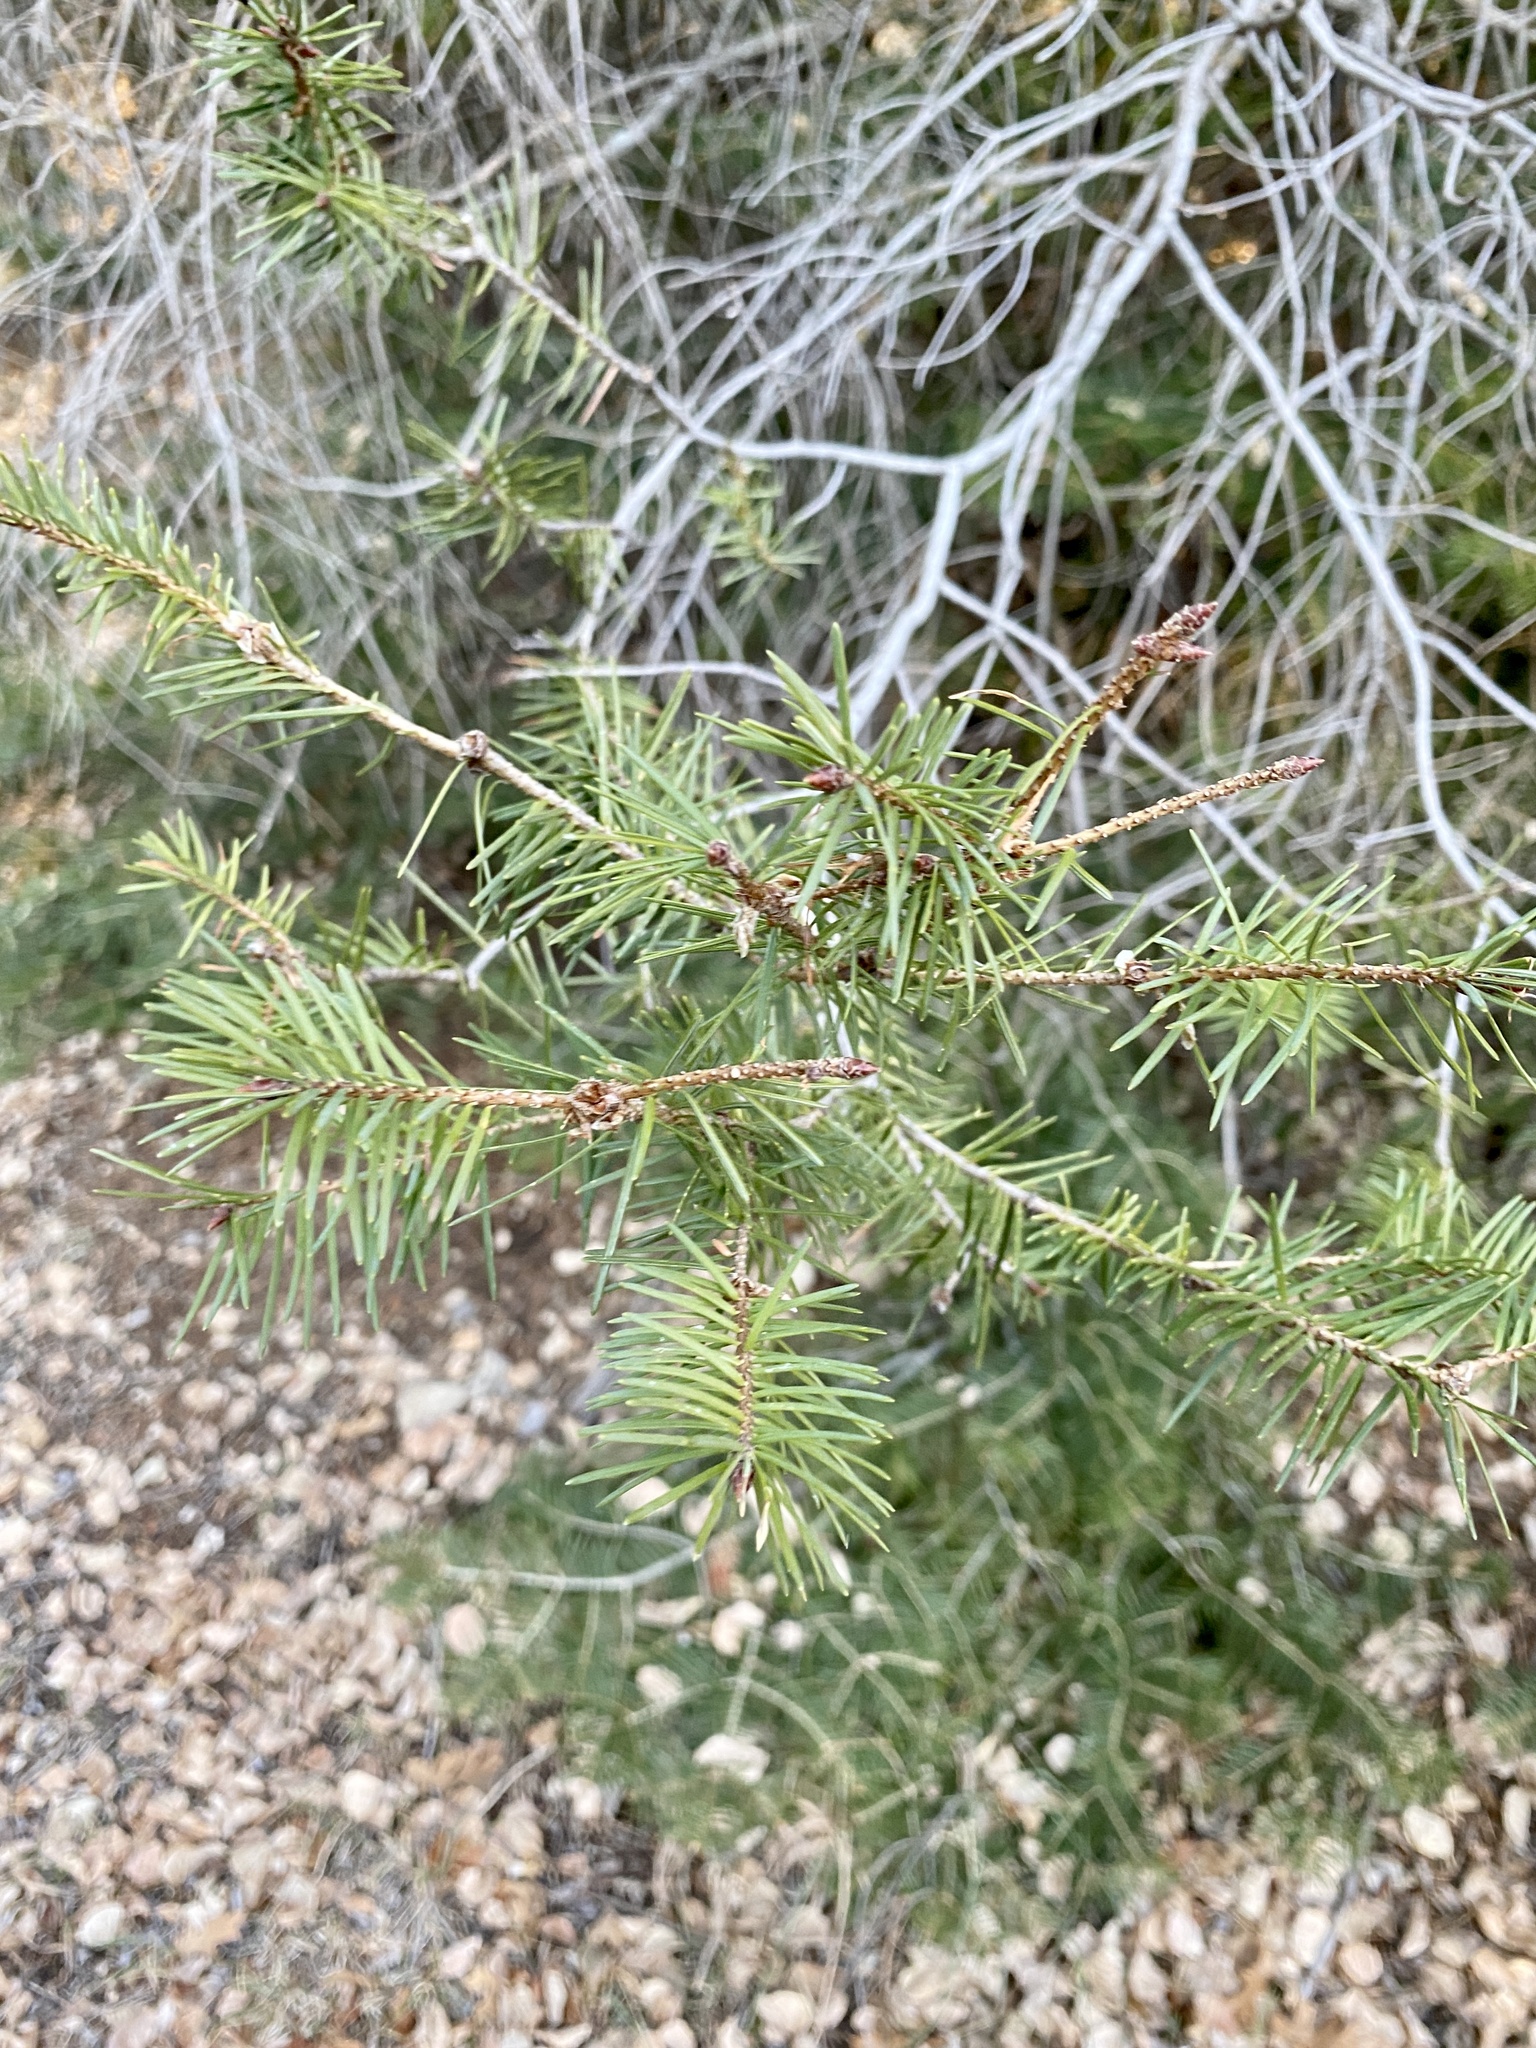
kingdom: Plantae
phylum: Tracheophyta
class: Pinopsida
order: Pinales
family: Pinaceae
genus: Pseudotsuga
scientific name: Pseudotsuga menziesii
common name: Douglas fir
